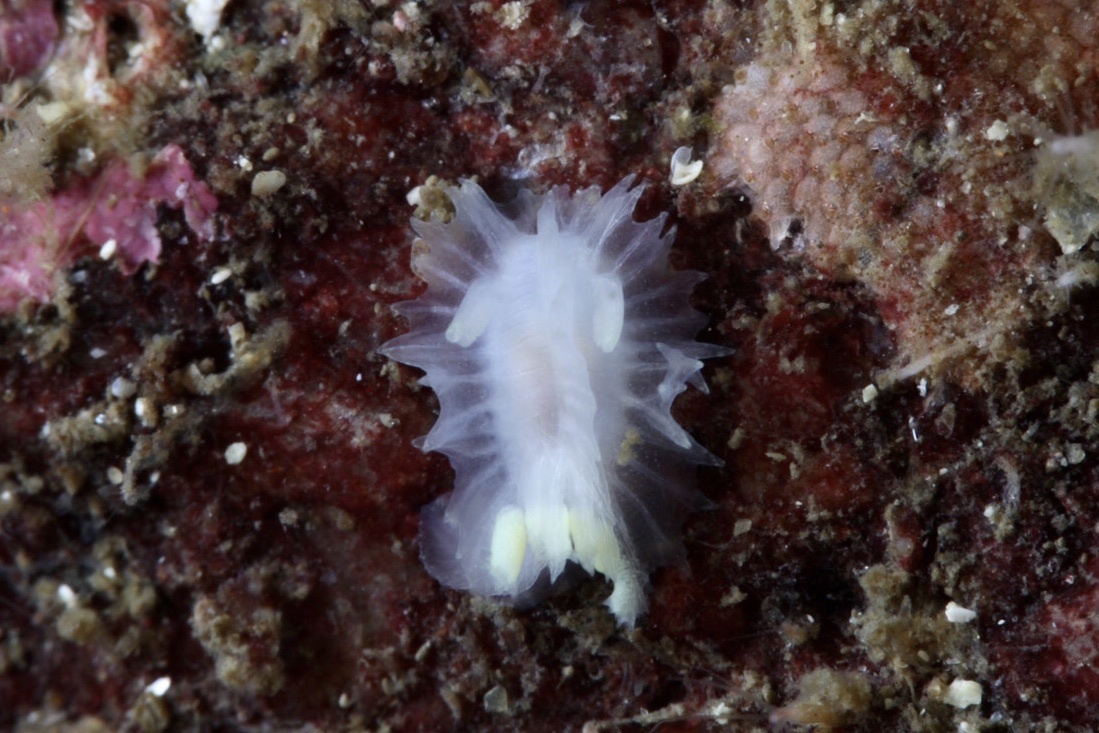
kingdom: Animalia
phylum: Mollusca
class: Gastropoda
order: Nudibranchia
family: Goniodorididae
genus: Lophodoris
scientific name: Lophodoris danielsseni
